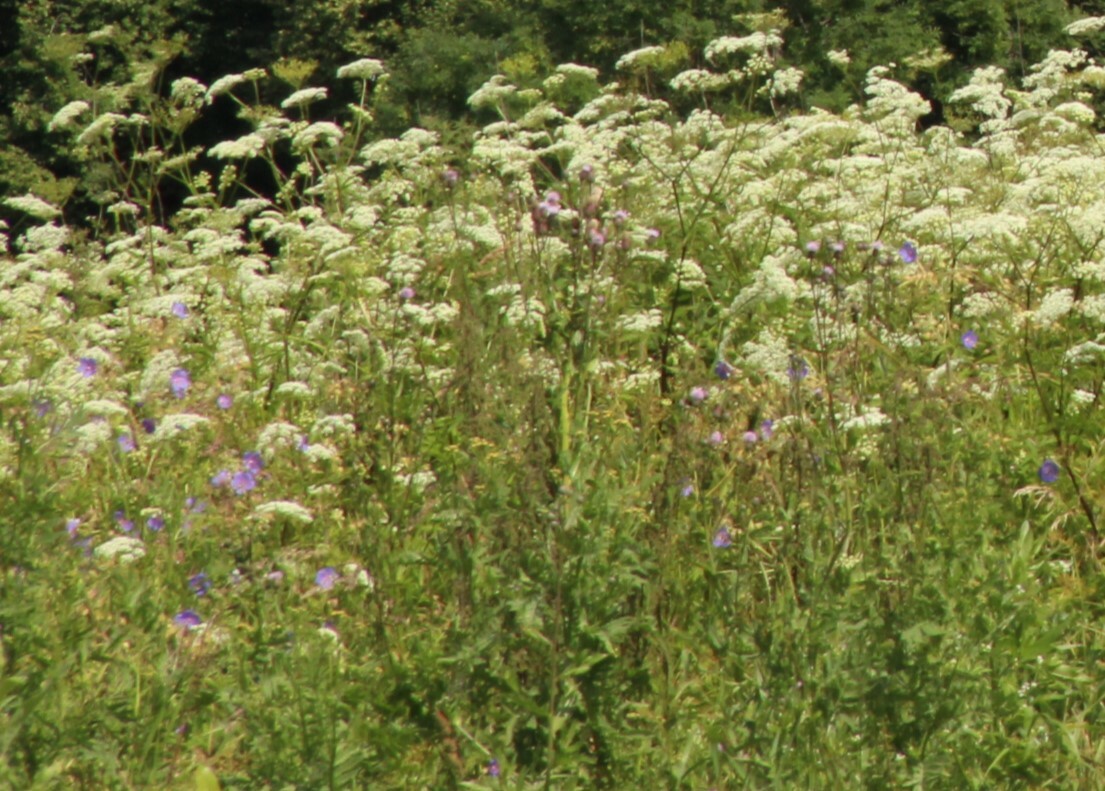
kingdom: Plantae
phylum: Tracheophyta
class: Magnoliopsida
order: Apiales
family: Apiaceae
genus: Seseli
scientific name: Seseli libanotis
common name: Mooncarrot
